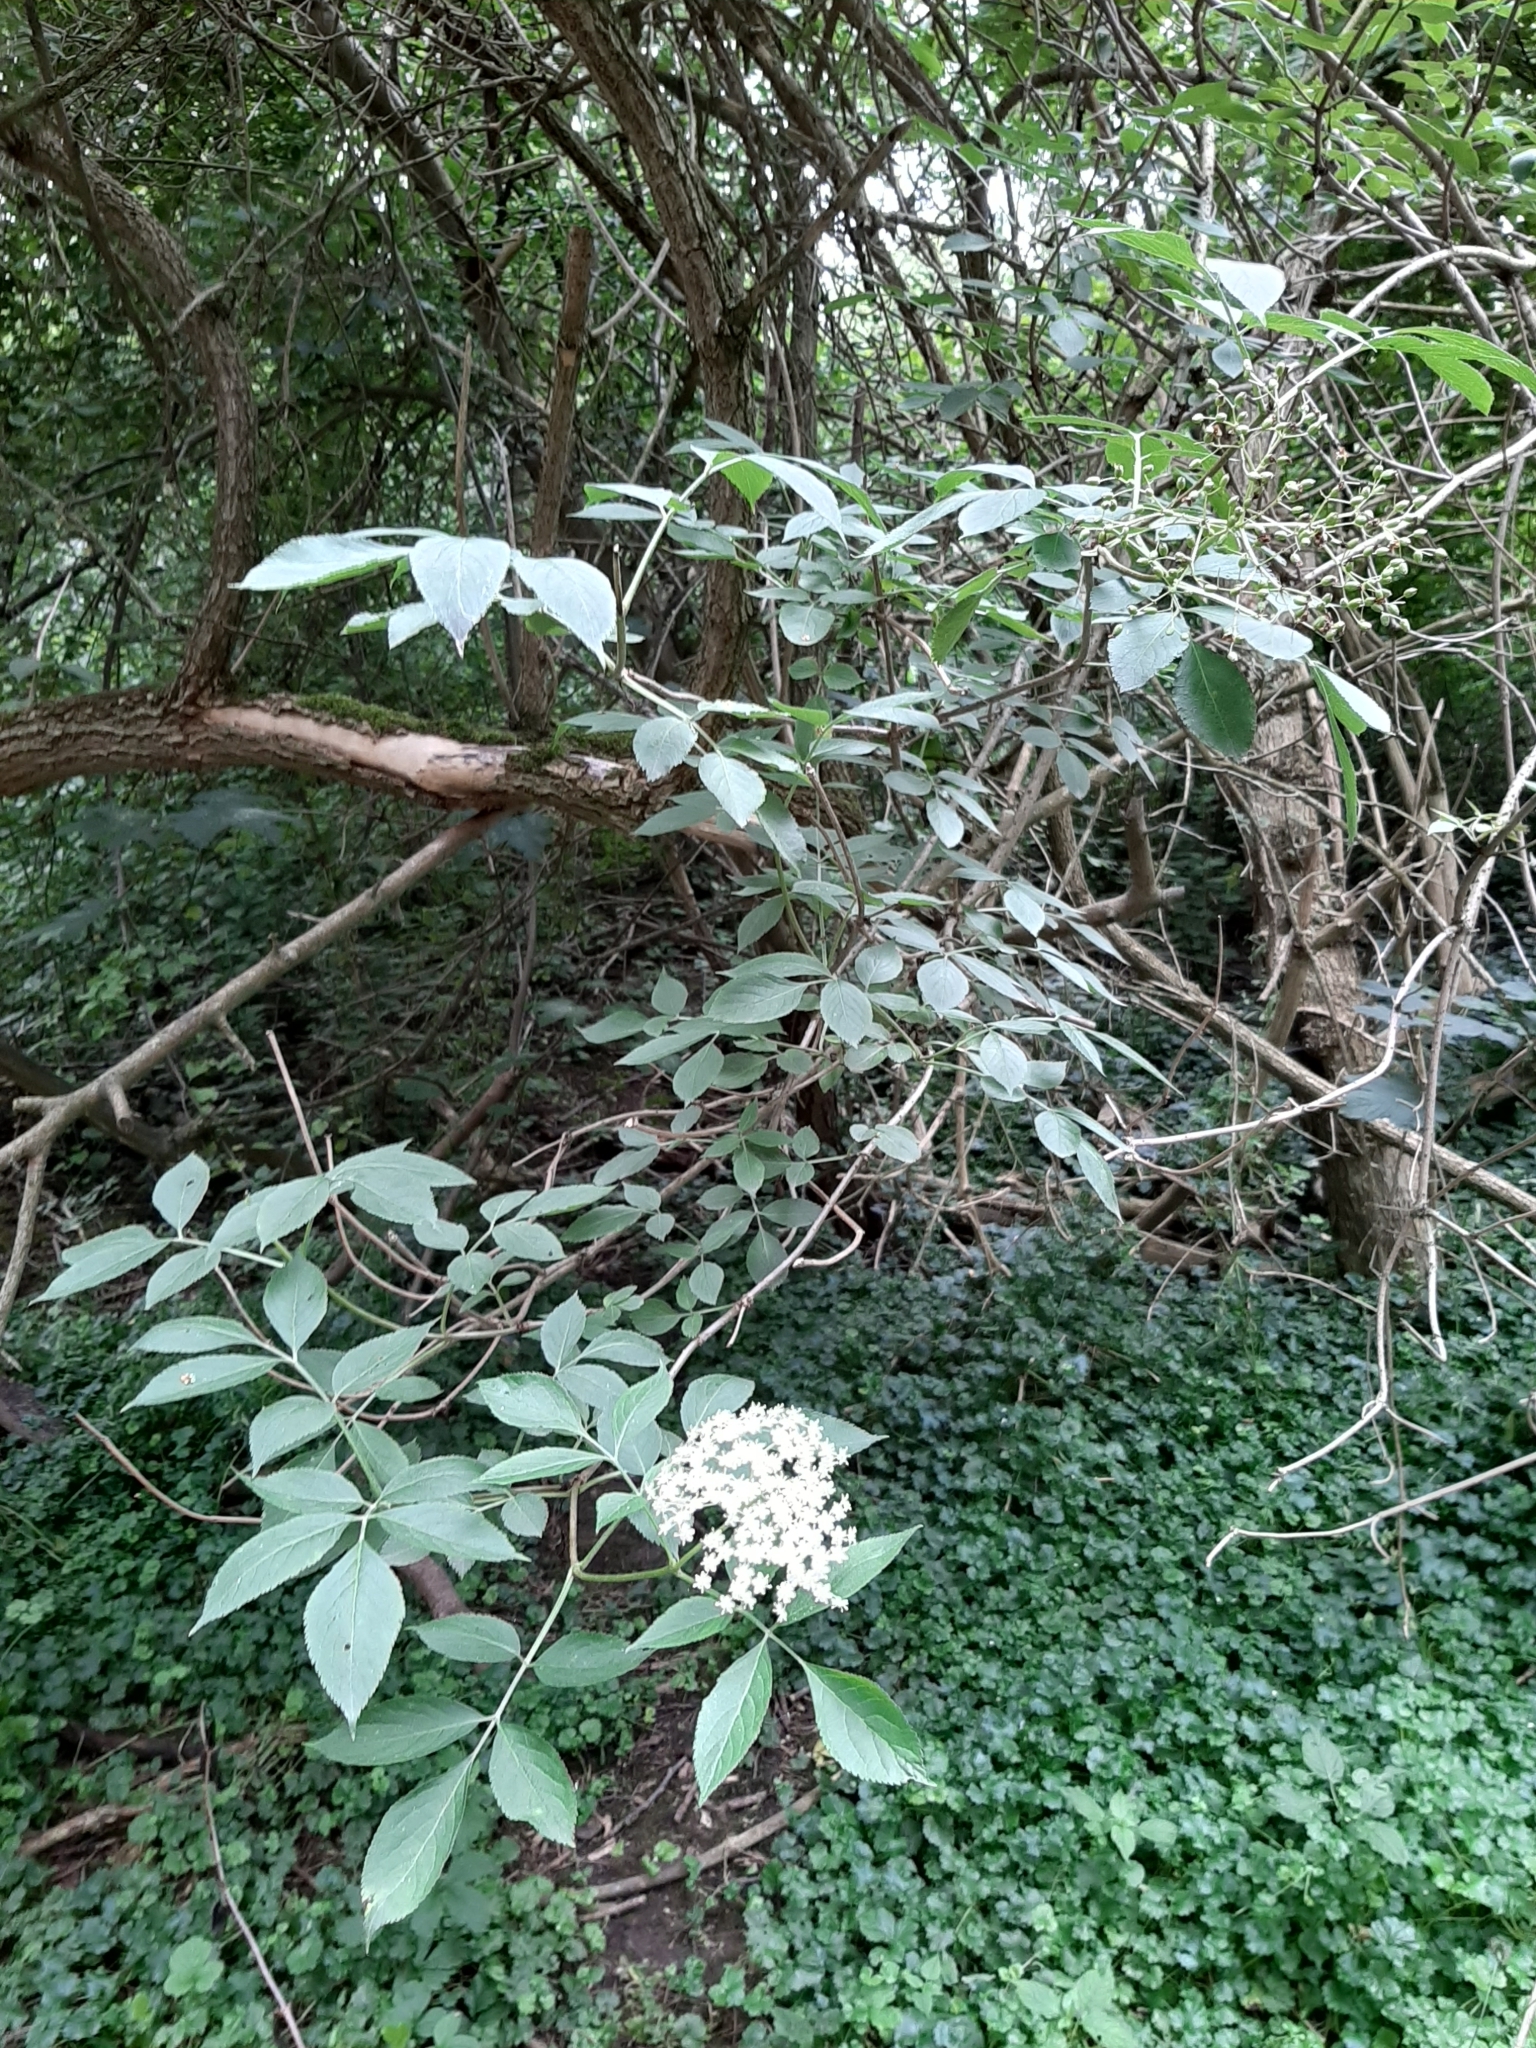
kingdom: Plantae
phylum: Tracheophyta
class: Magnoliopsida
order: Dipsacales
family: Viburnaceae
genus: Sambucus
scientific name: Sambucus nigra
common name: Elder
